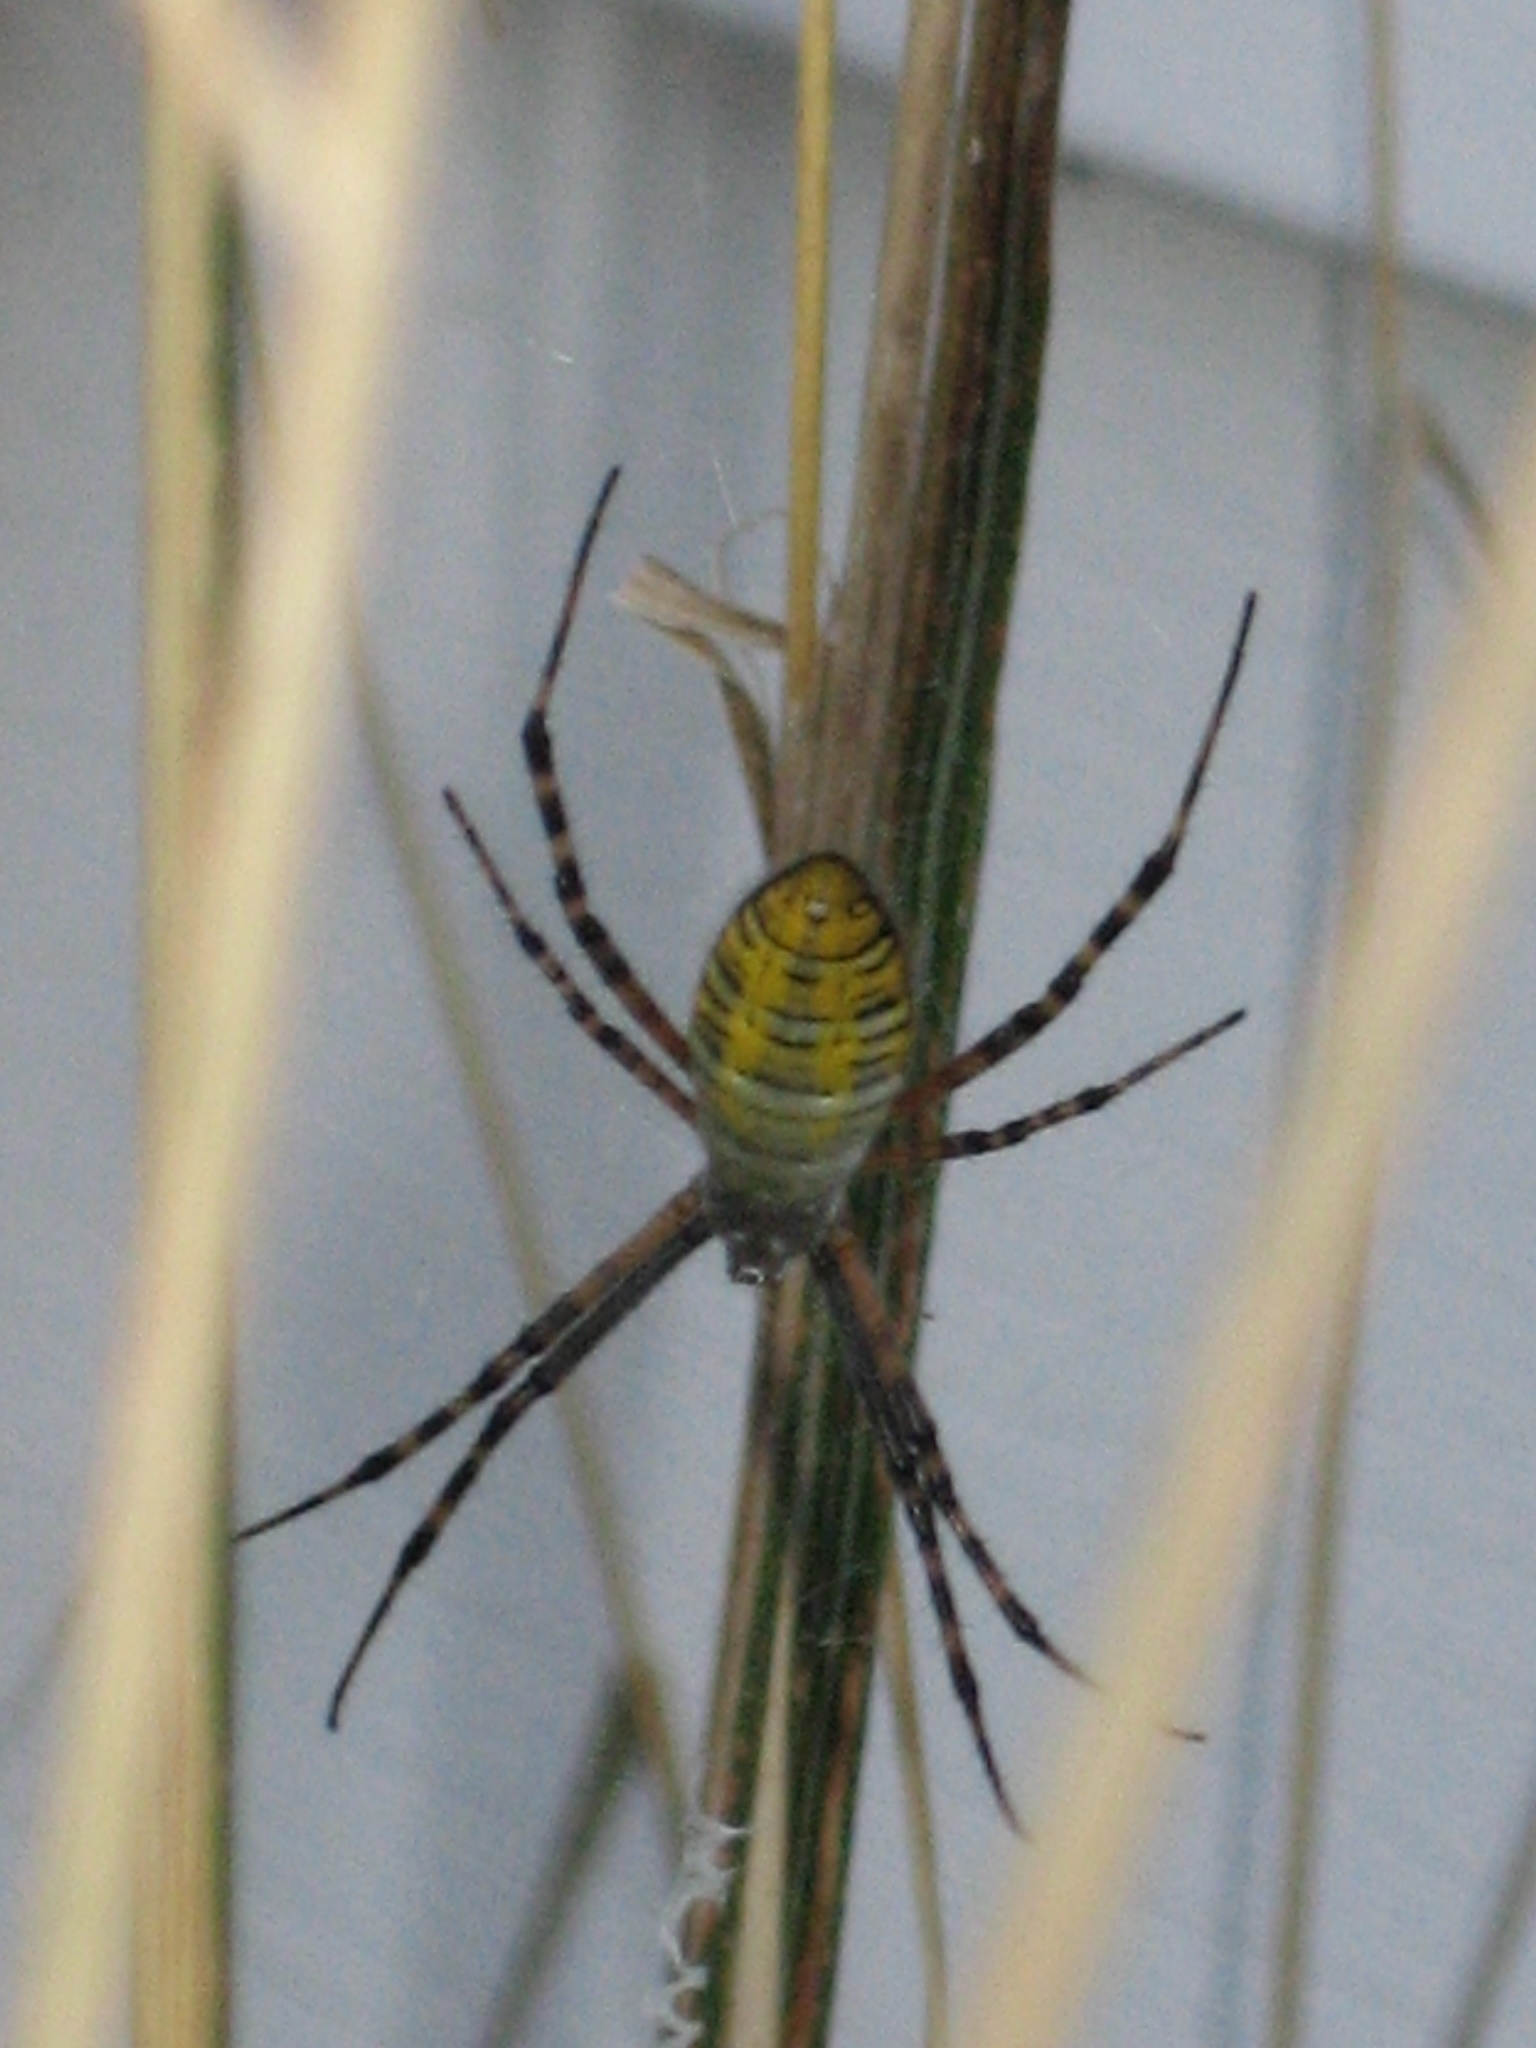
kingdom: Animalia
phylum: Arthropoda
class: Arachnida
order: Araneae
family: Araneidae
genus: Argiope
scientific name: Argiope trifasciata
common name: Banded garden spider
